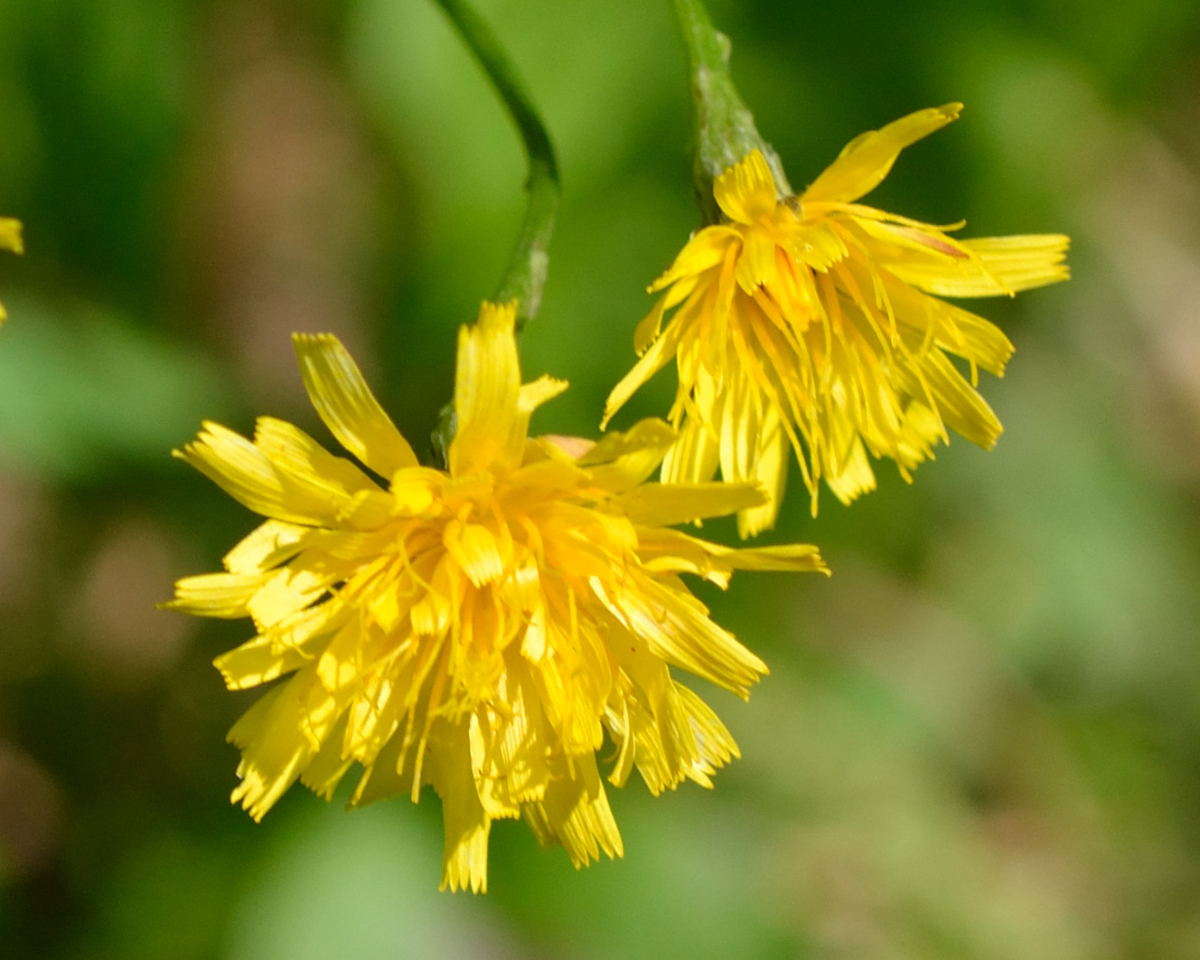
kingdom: Plantae
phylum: Tracheophyta
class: Magnoliopsida
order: Asterales
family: Asteraceae
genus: Scorzoneroides
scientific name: Scorzoneroides autumnalis
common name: Autumn hawkbit
